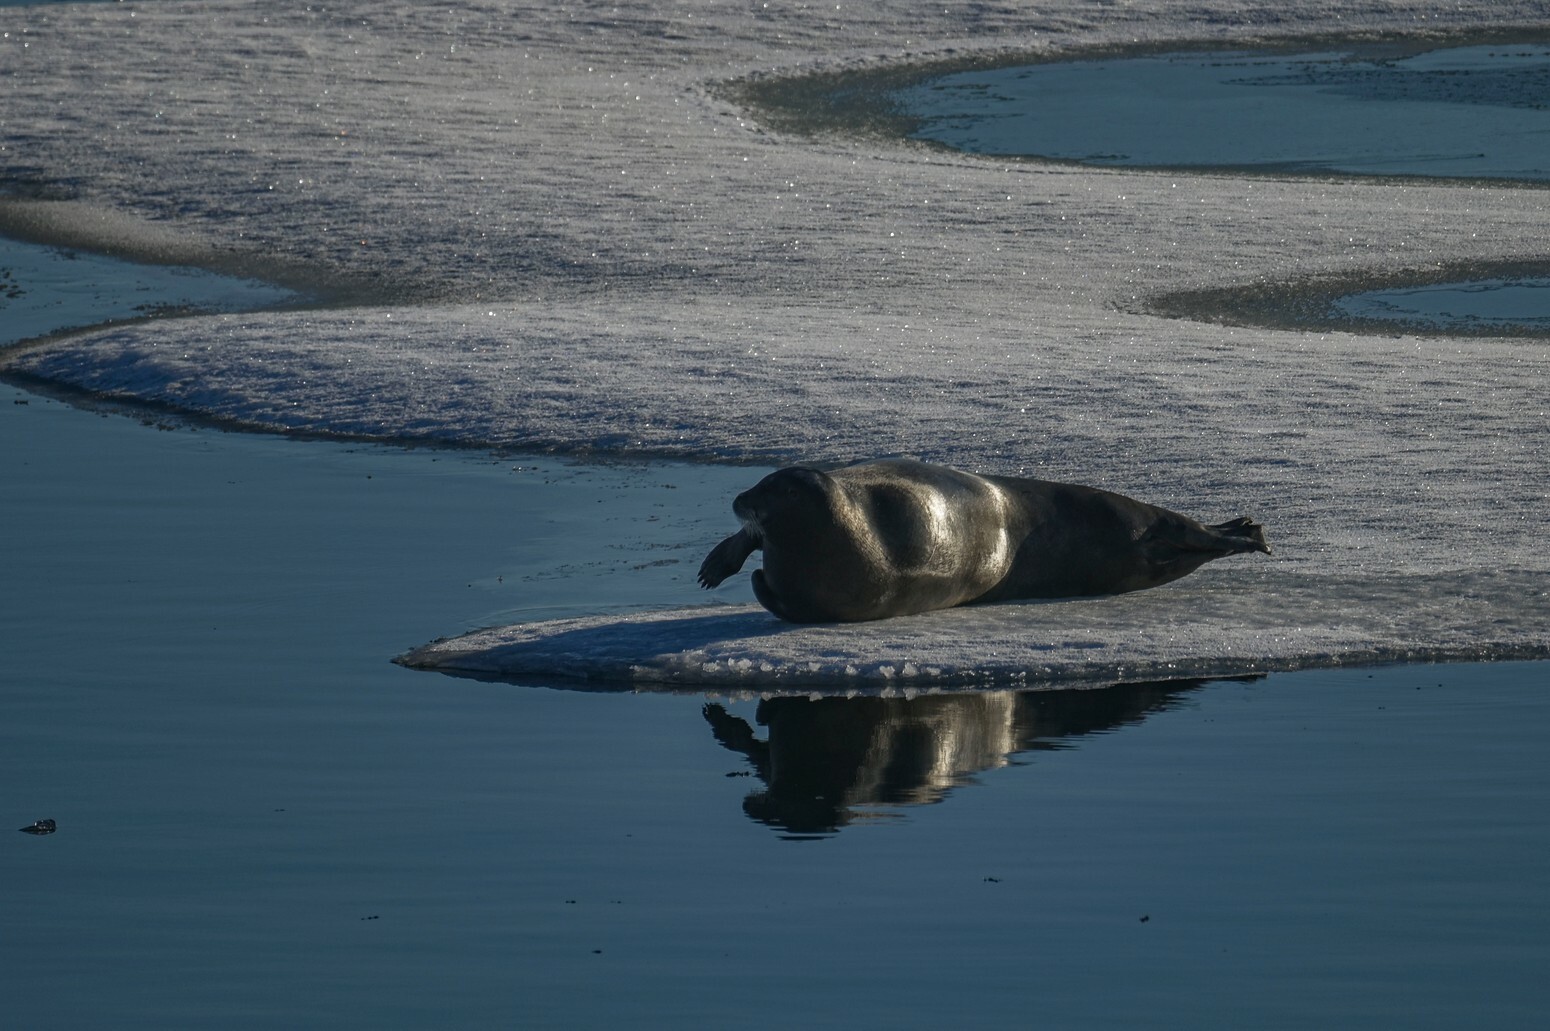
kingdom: Animalia
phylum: Chordata
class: Mammalia
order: Carnivora
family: Phocidae
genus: Erignathus
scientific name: Erignathus barbatus
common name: Bearded seal
